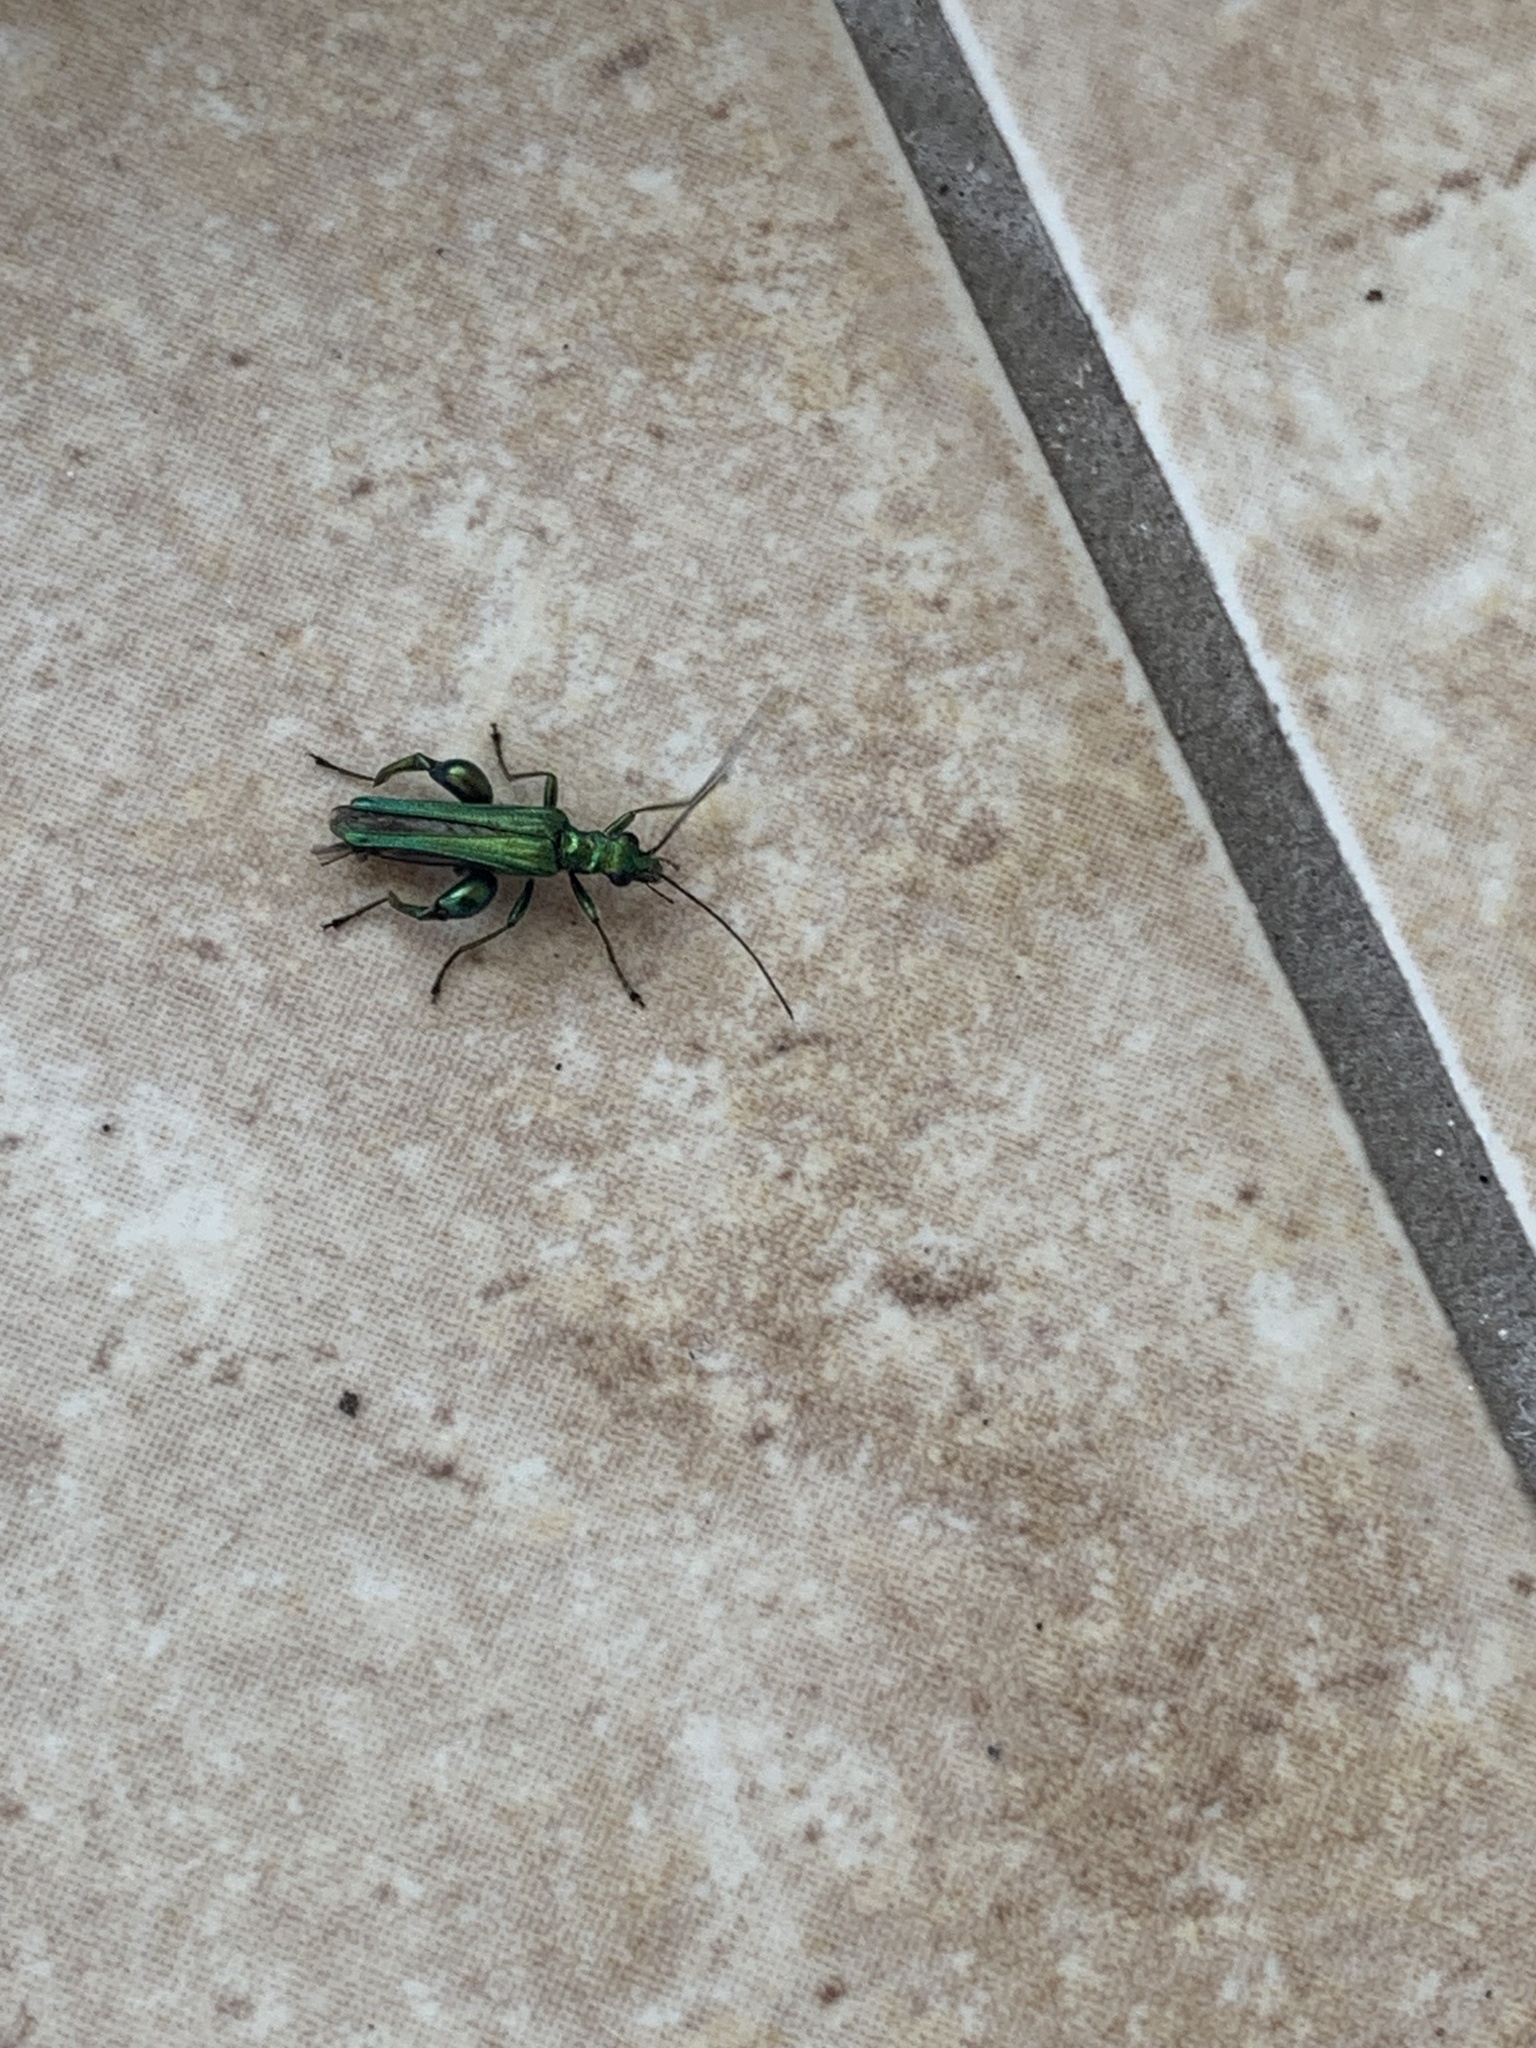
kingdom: Animalia
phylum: Arthropoda
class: Insecta
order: Coleoptera
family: Oedemeridae
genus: Oedemera
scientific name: Oedemera nobilis
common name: Swollen-thighed beetle
